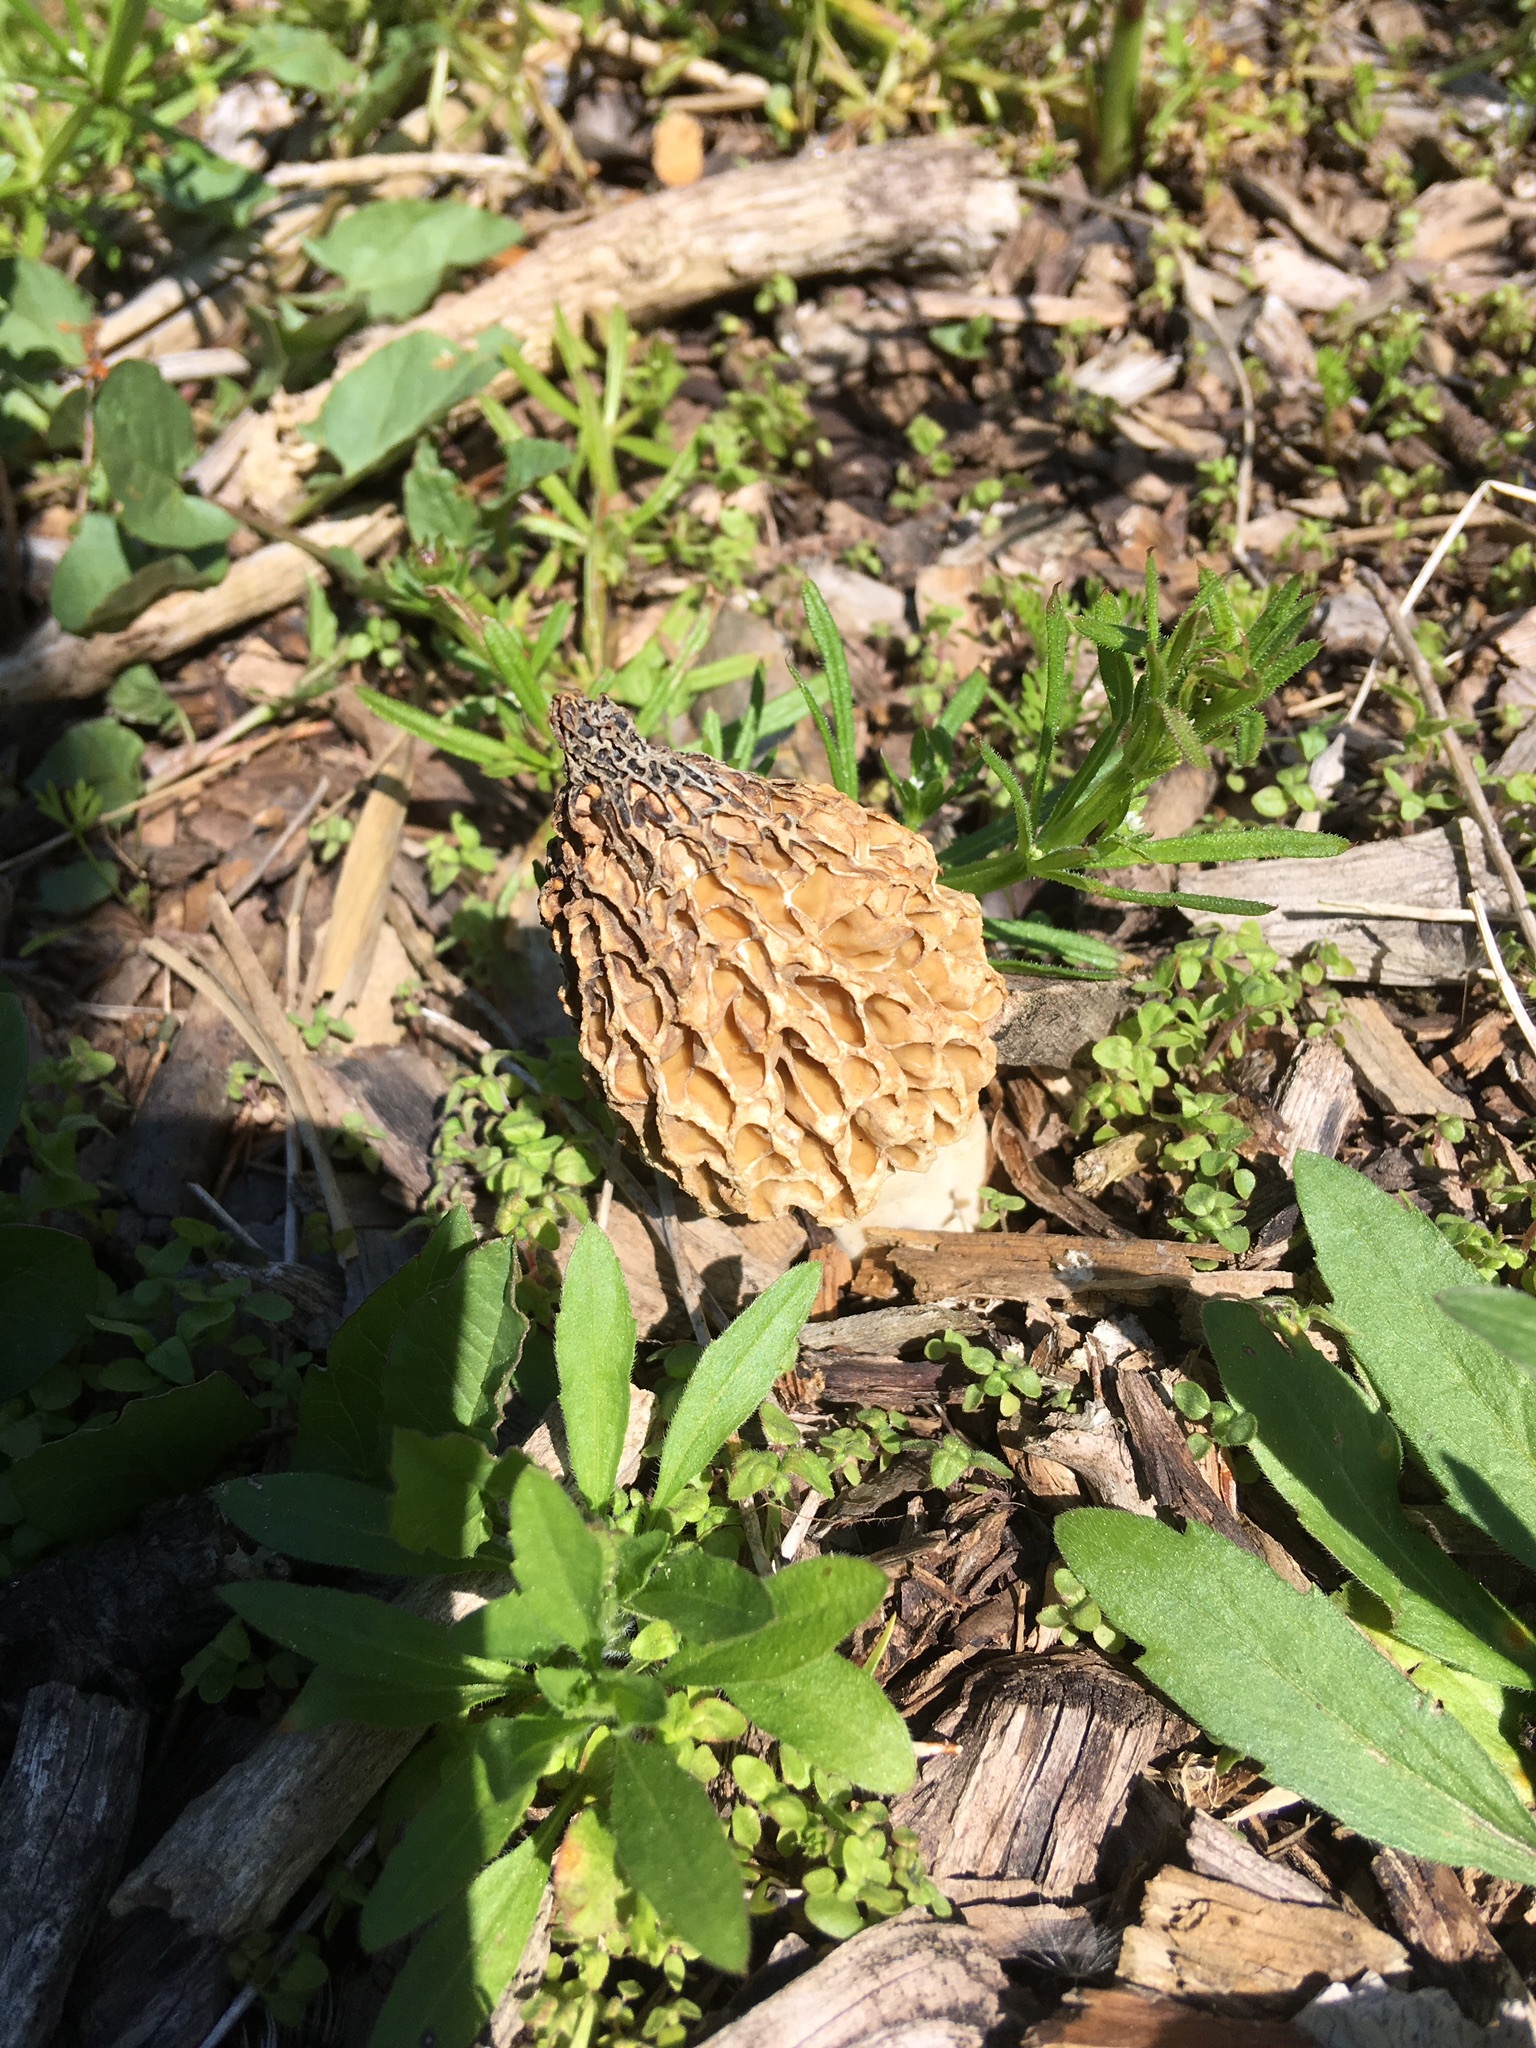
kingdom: Fungi
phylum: Ascomycota
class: Pezizomycetes
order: Pezizales
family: Morchellaceae
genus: Morchella
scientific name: Morchella americana
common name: White morel
